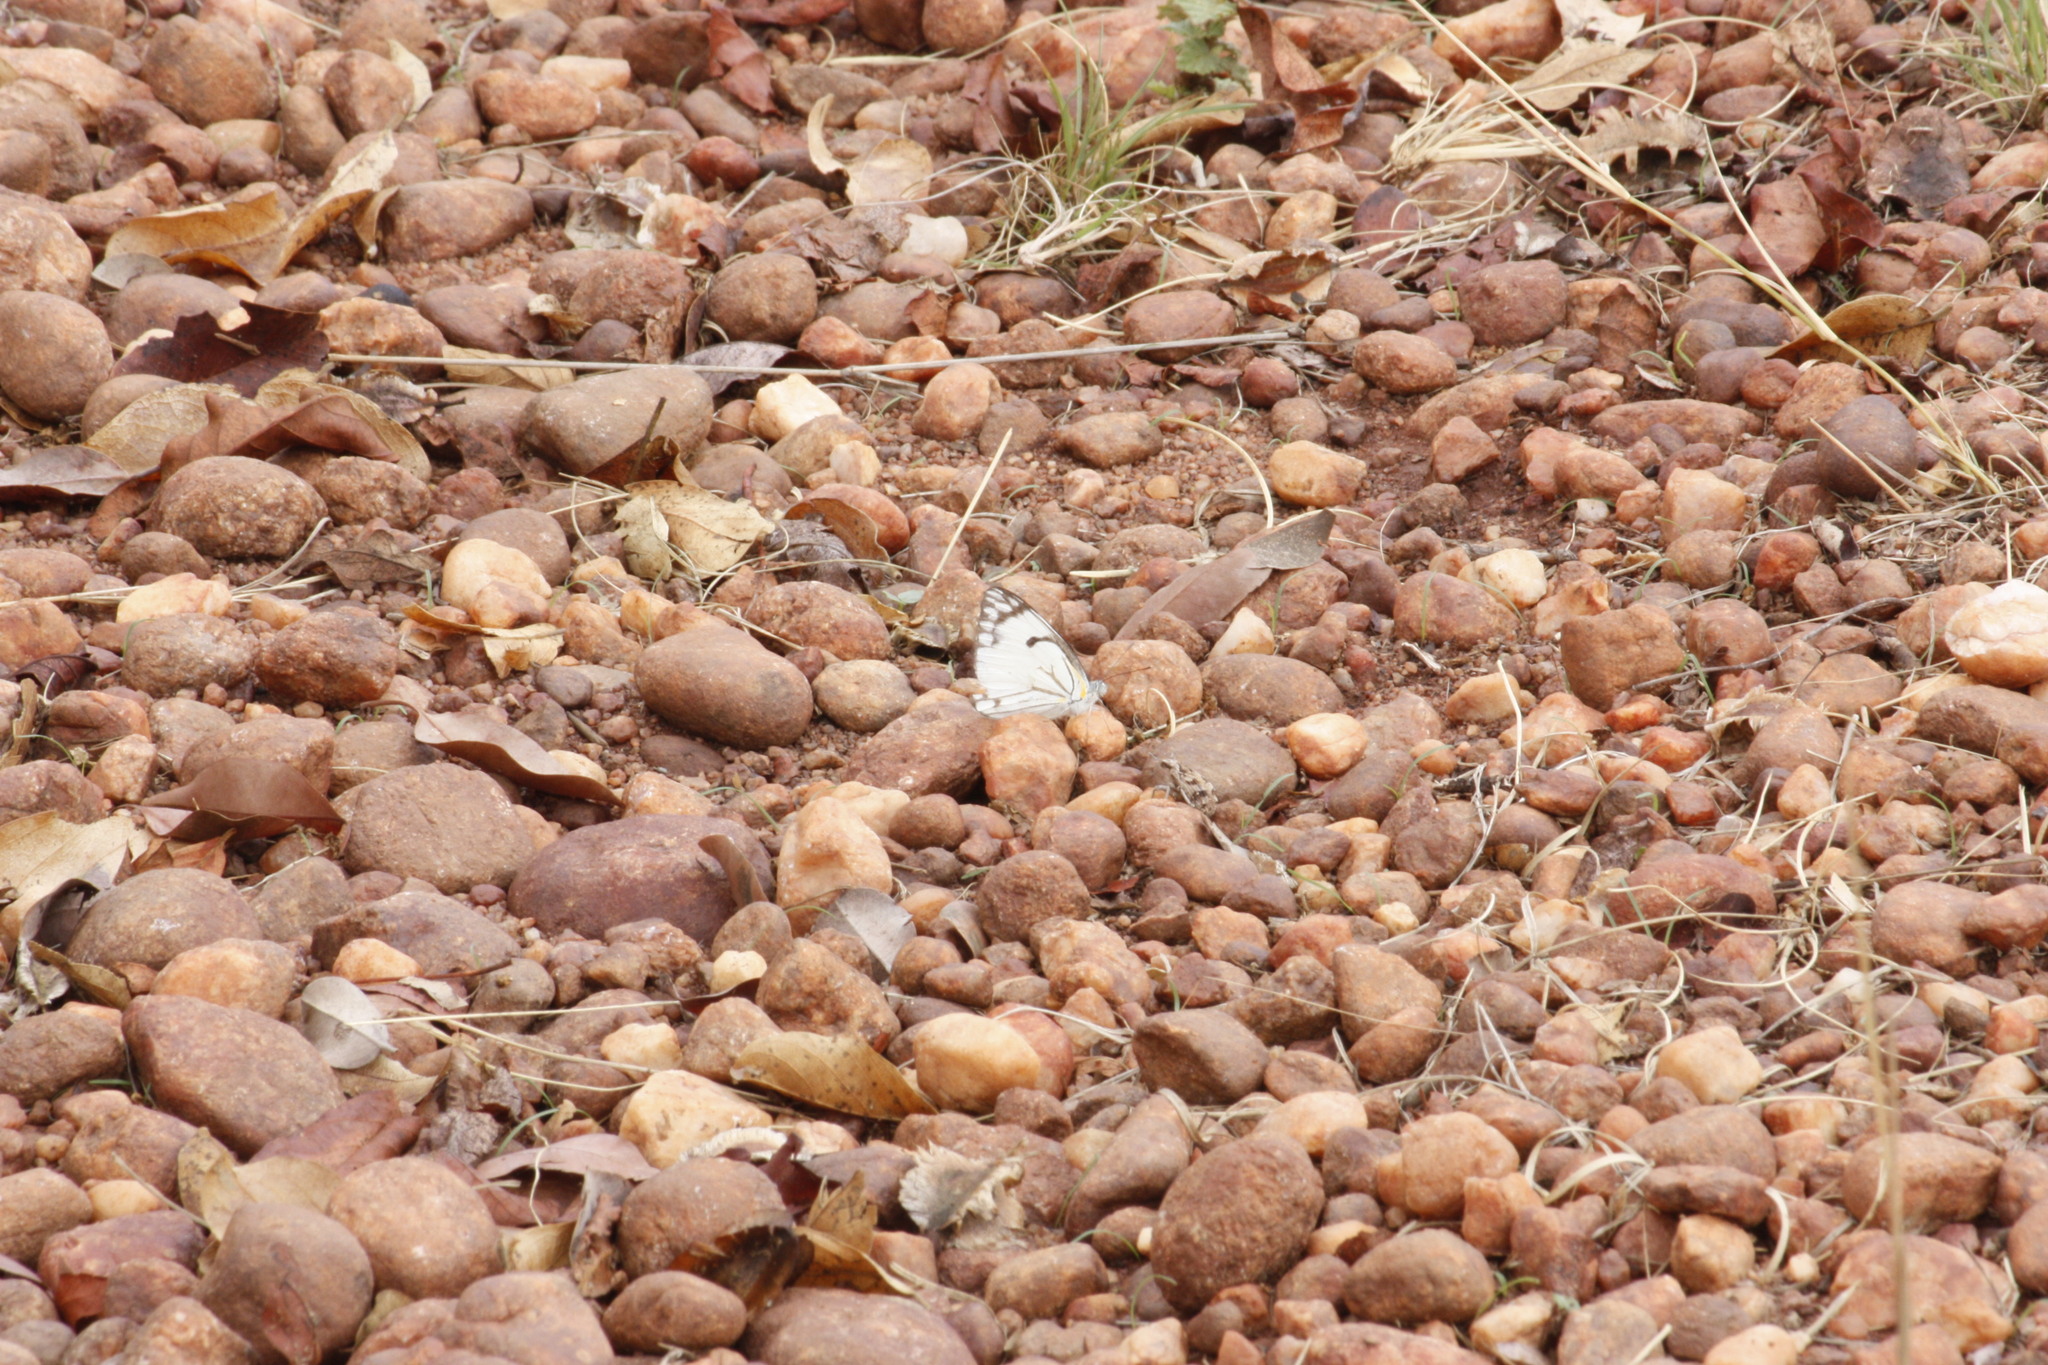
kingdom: Animalia
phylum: Arthropoda
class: Insecta
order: Lepidoptera
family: Pieridae
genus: Belenois
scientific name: Belenois aurota
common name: Brown-veined white
